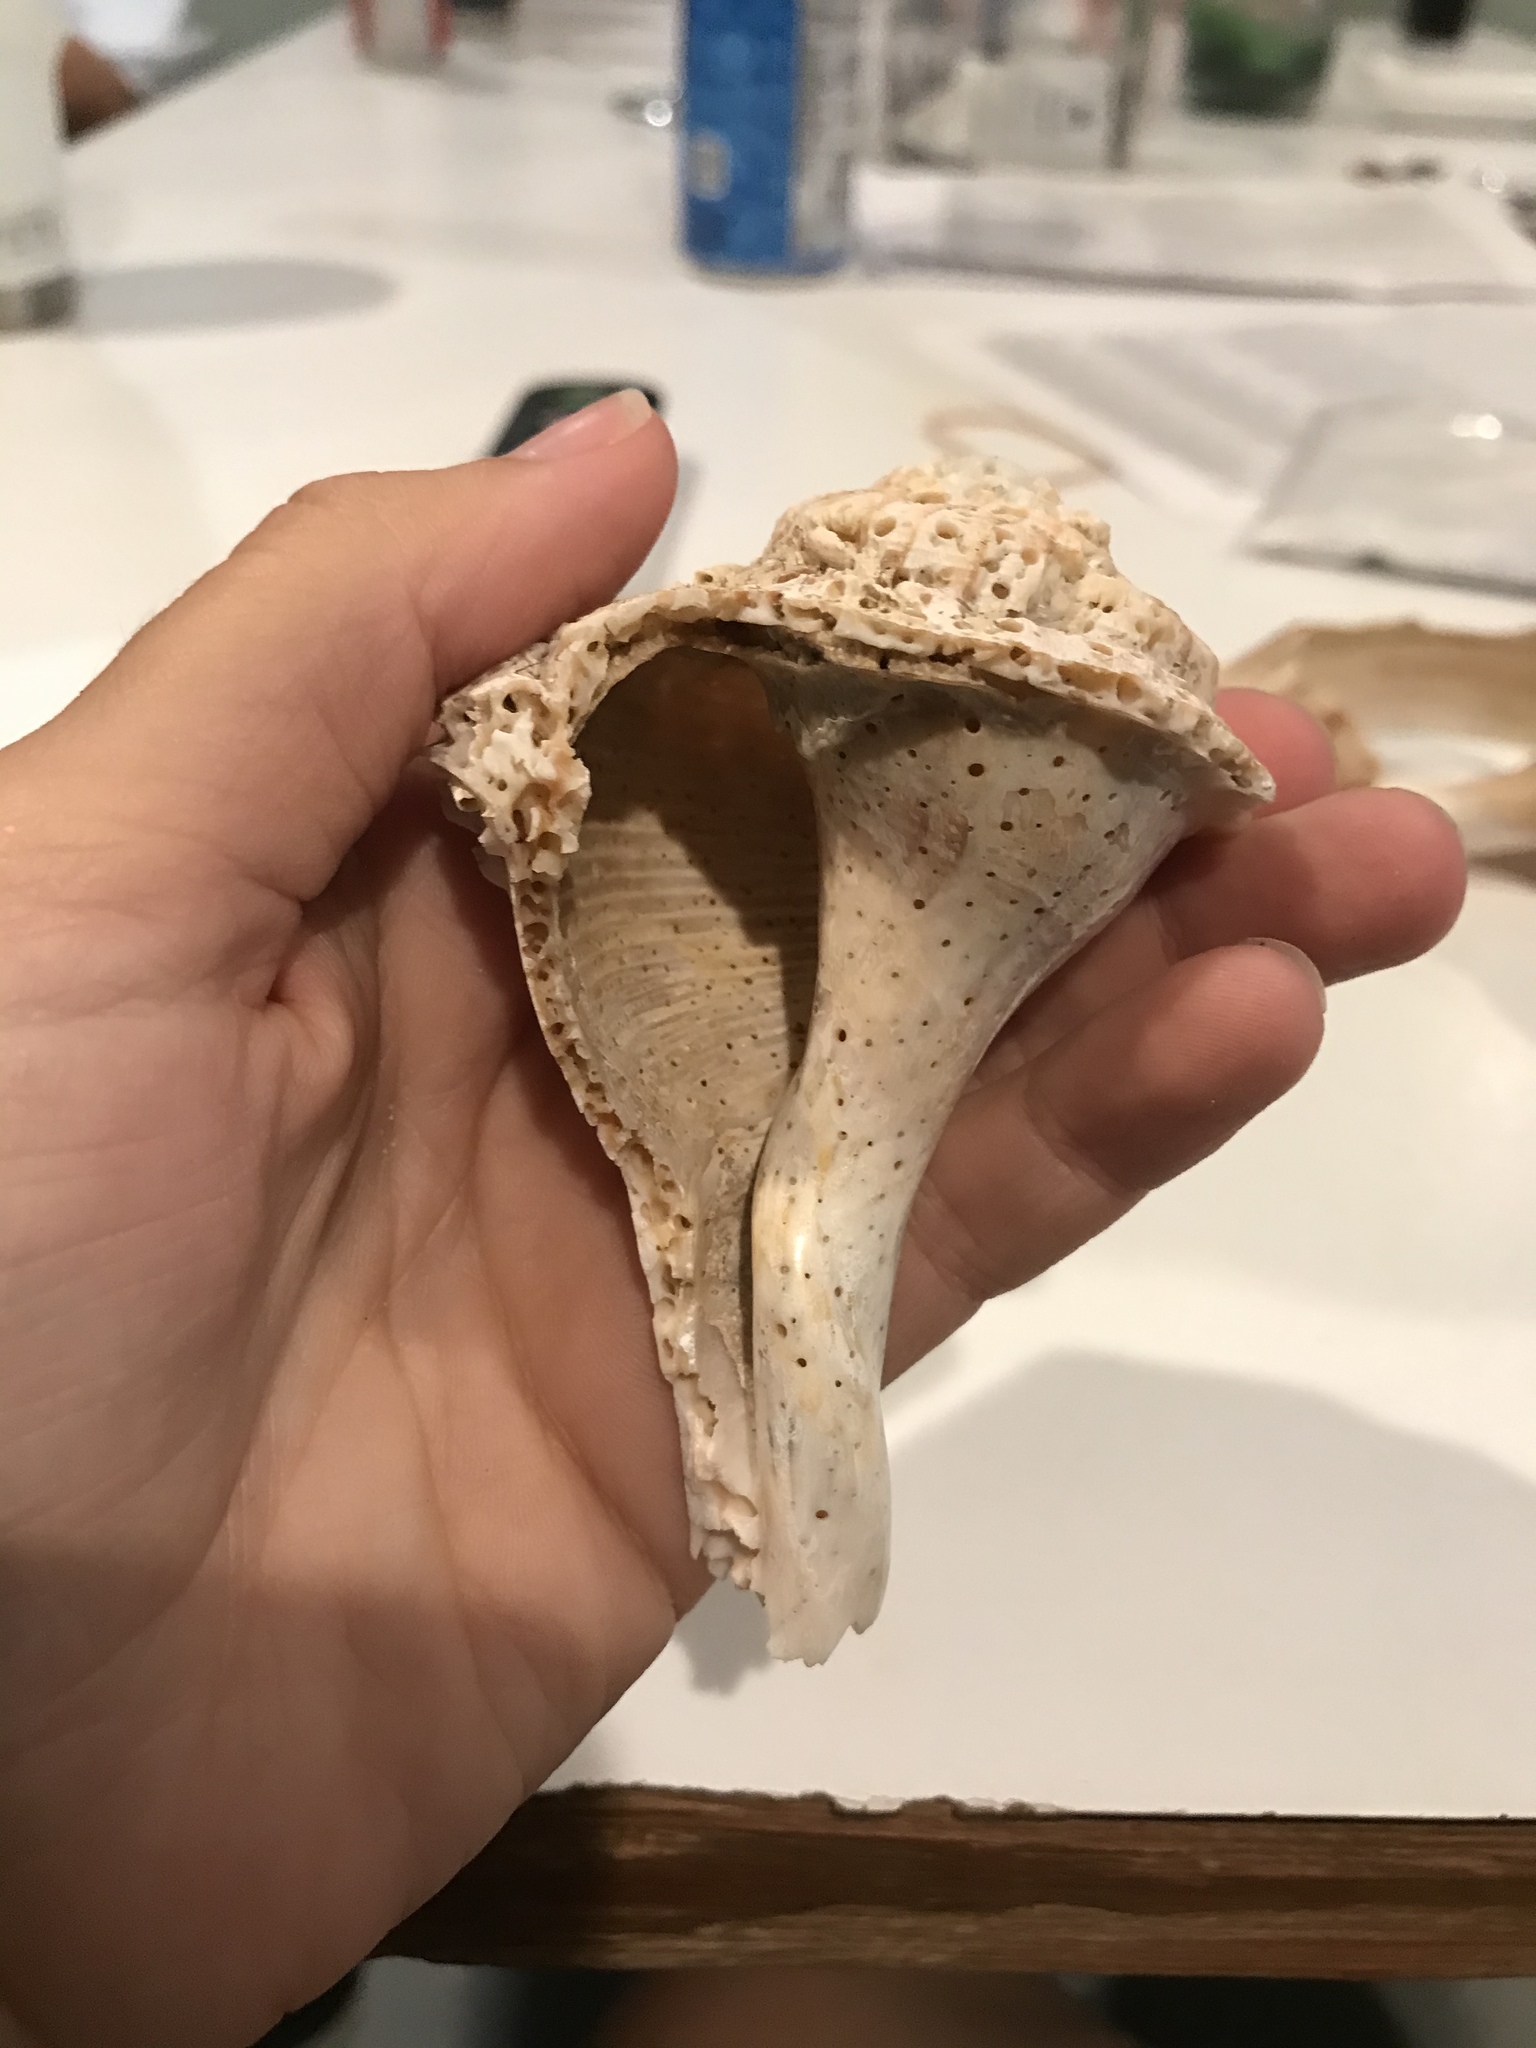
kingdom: Animalia
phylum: Mollusca
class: Gastropoda
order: Neogastropoda
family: Busyconidae
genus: Sinistrofulgur
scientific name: Sinistrofulgur sinistrum
